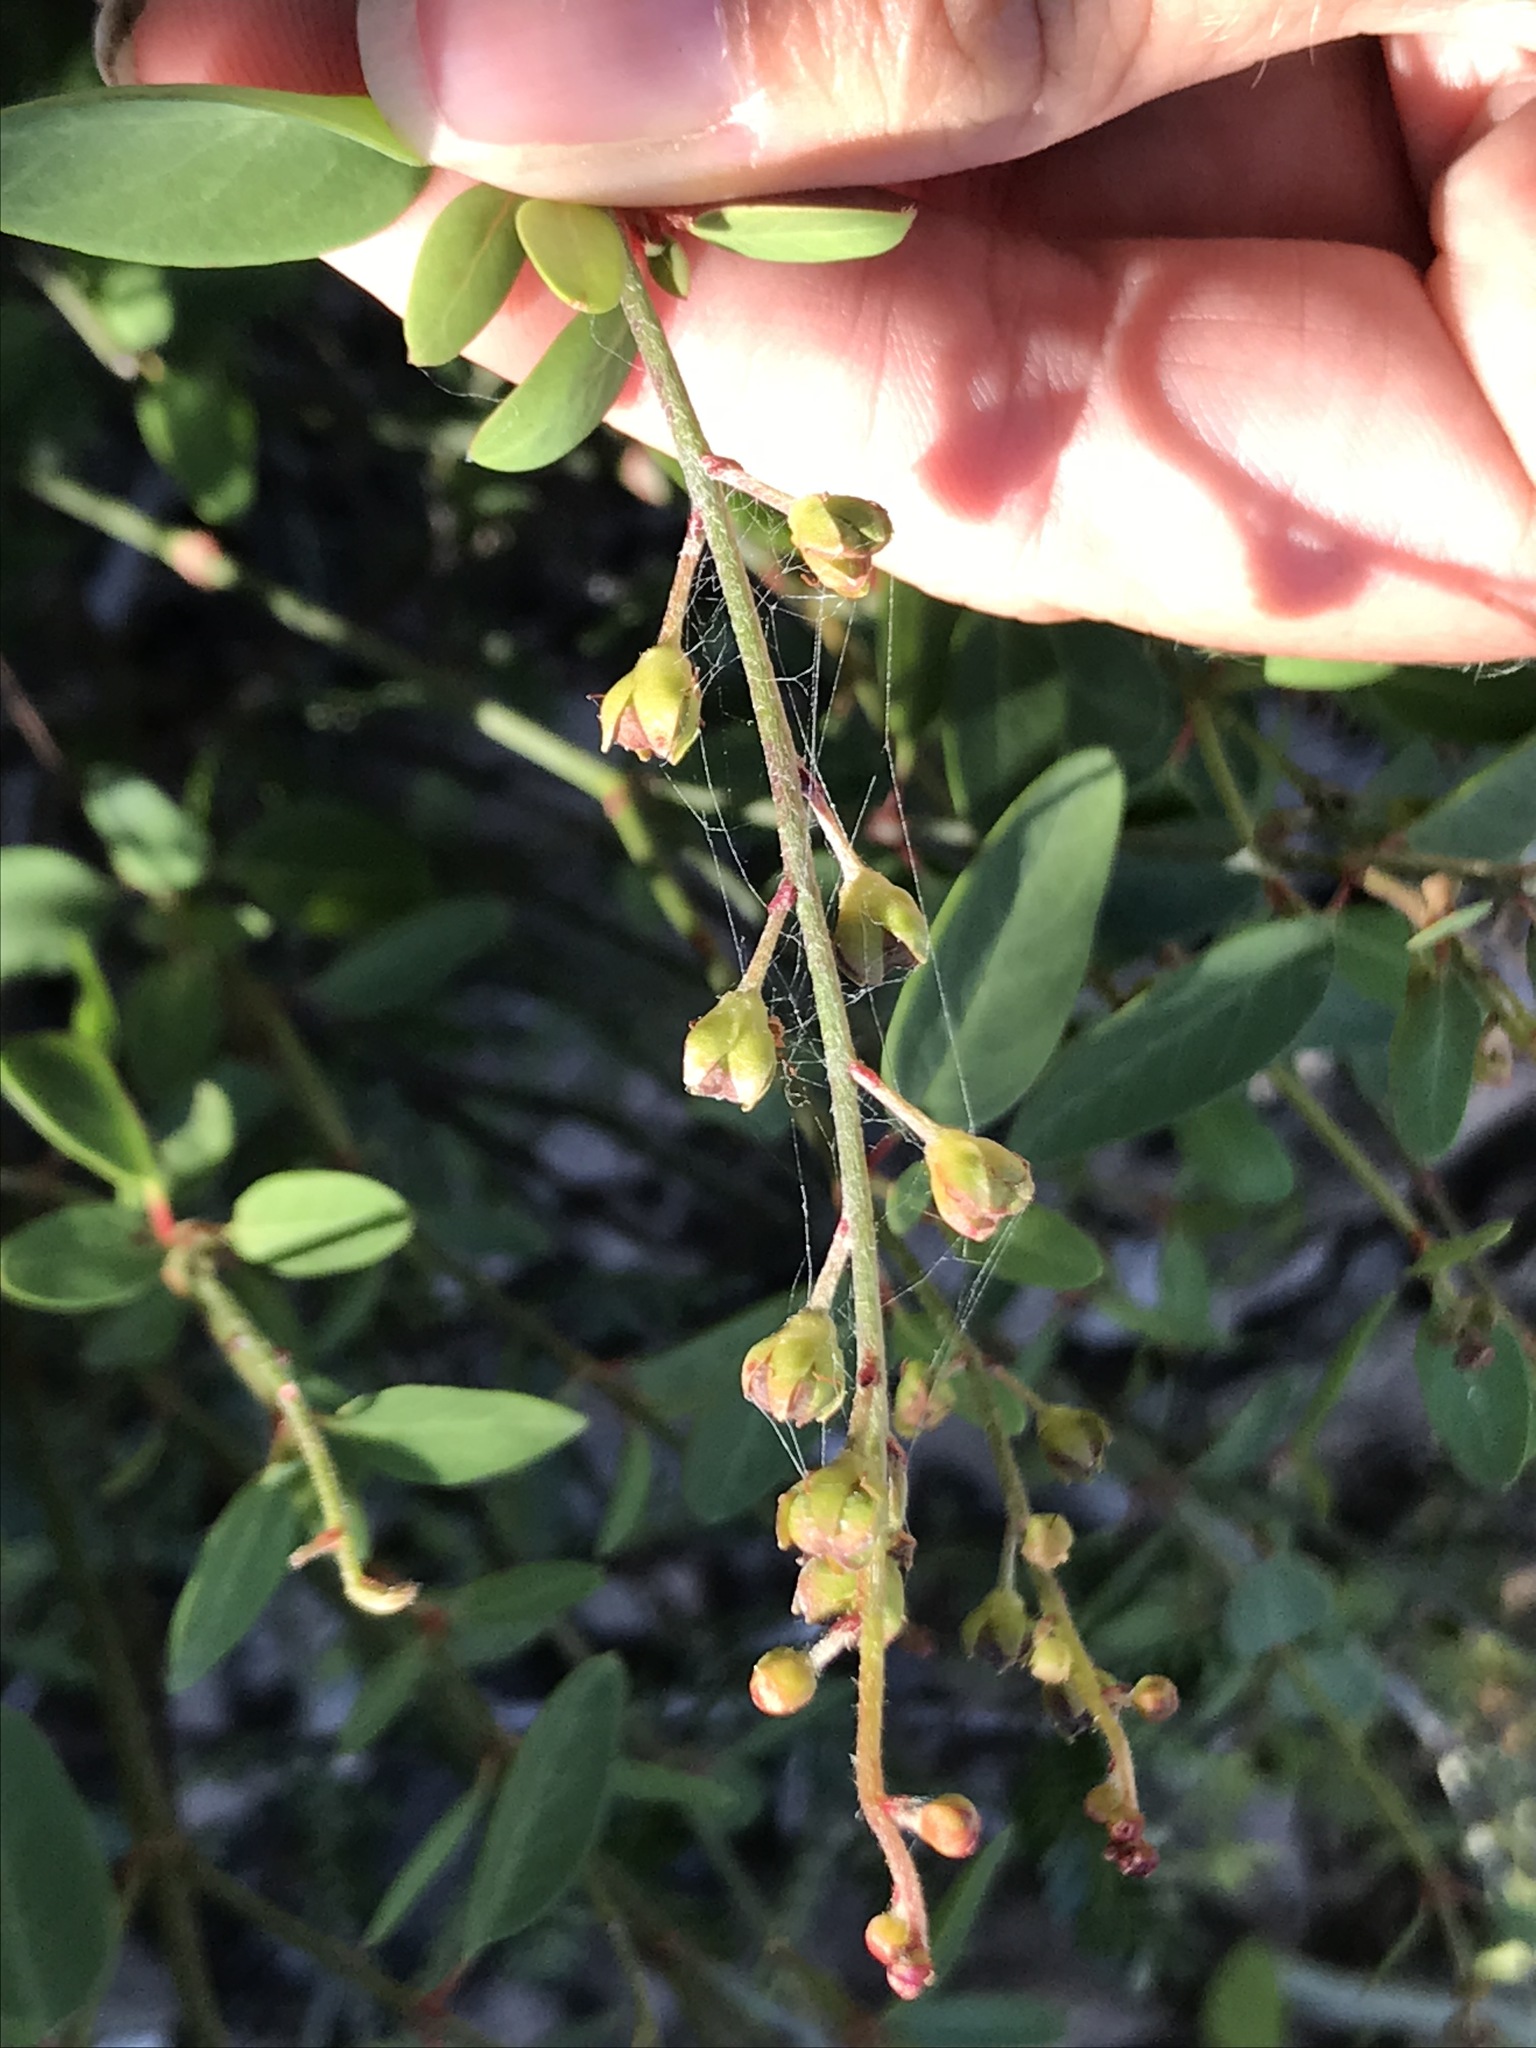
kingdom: Plantae
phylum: Tracheophyta
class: Magnoliopsida
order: Malpighiales
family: Malpighiaceae
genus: Galphimia
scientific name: Galphimia angustifolia
